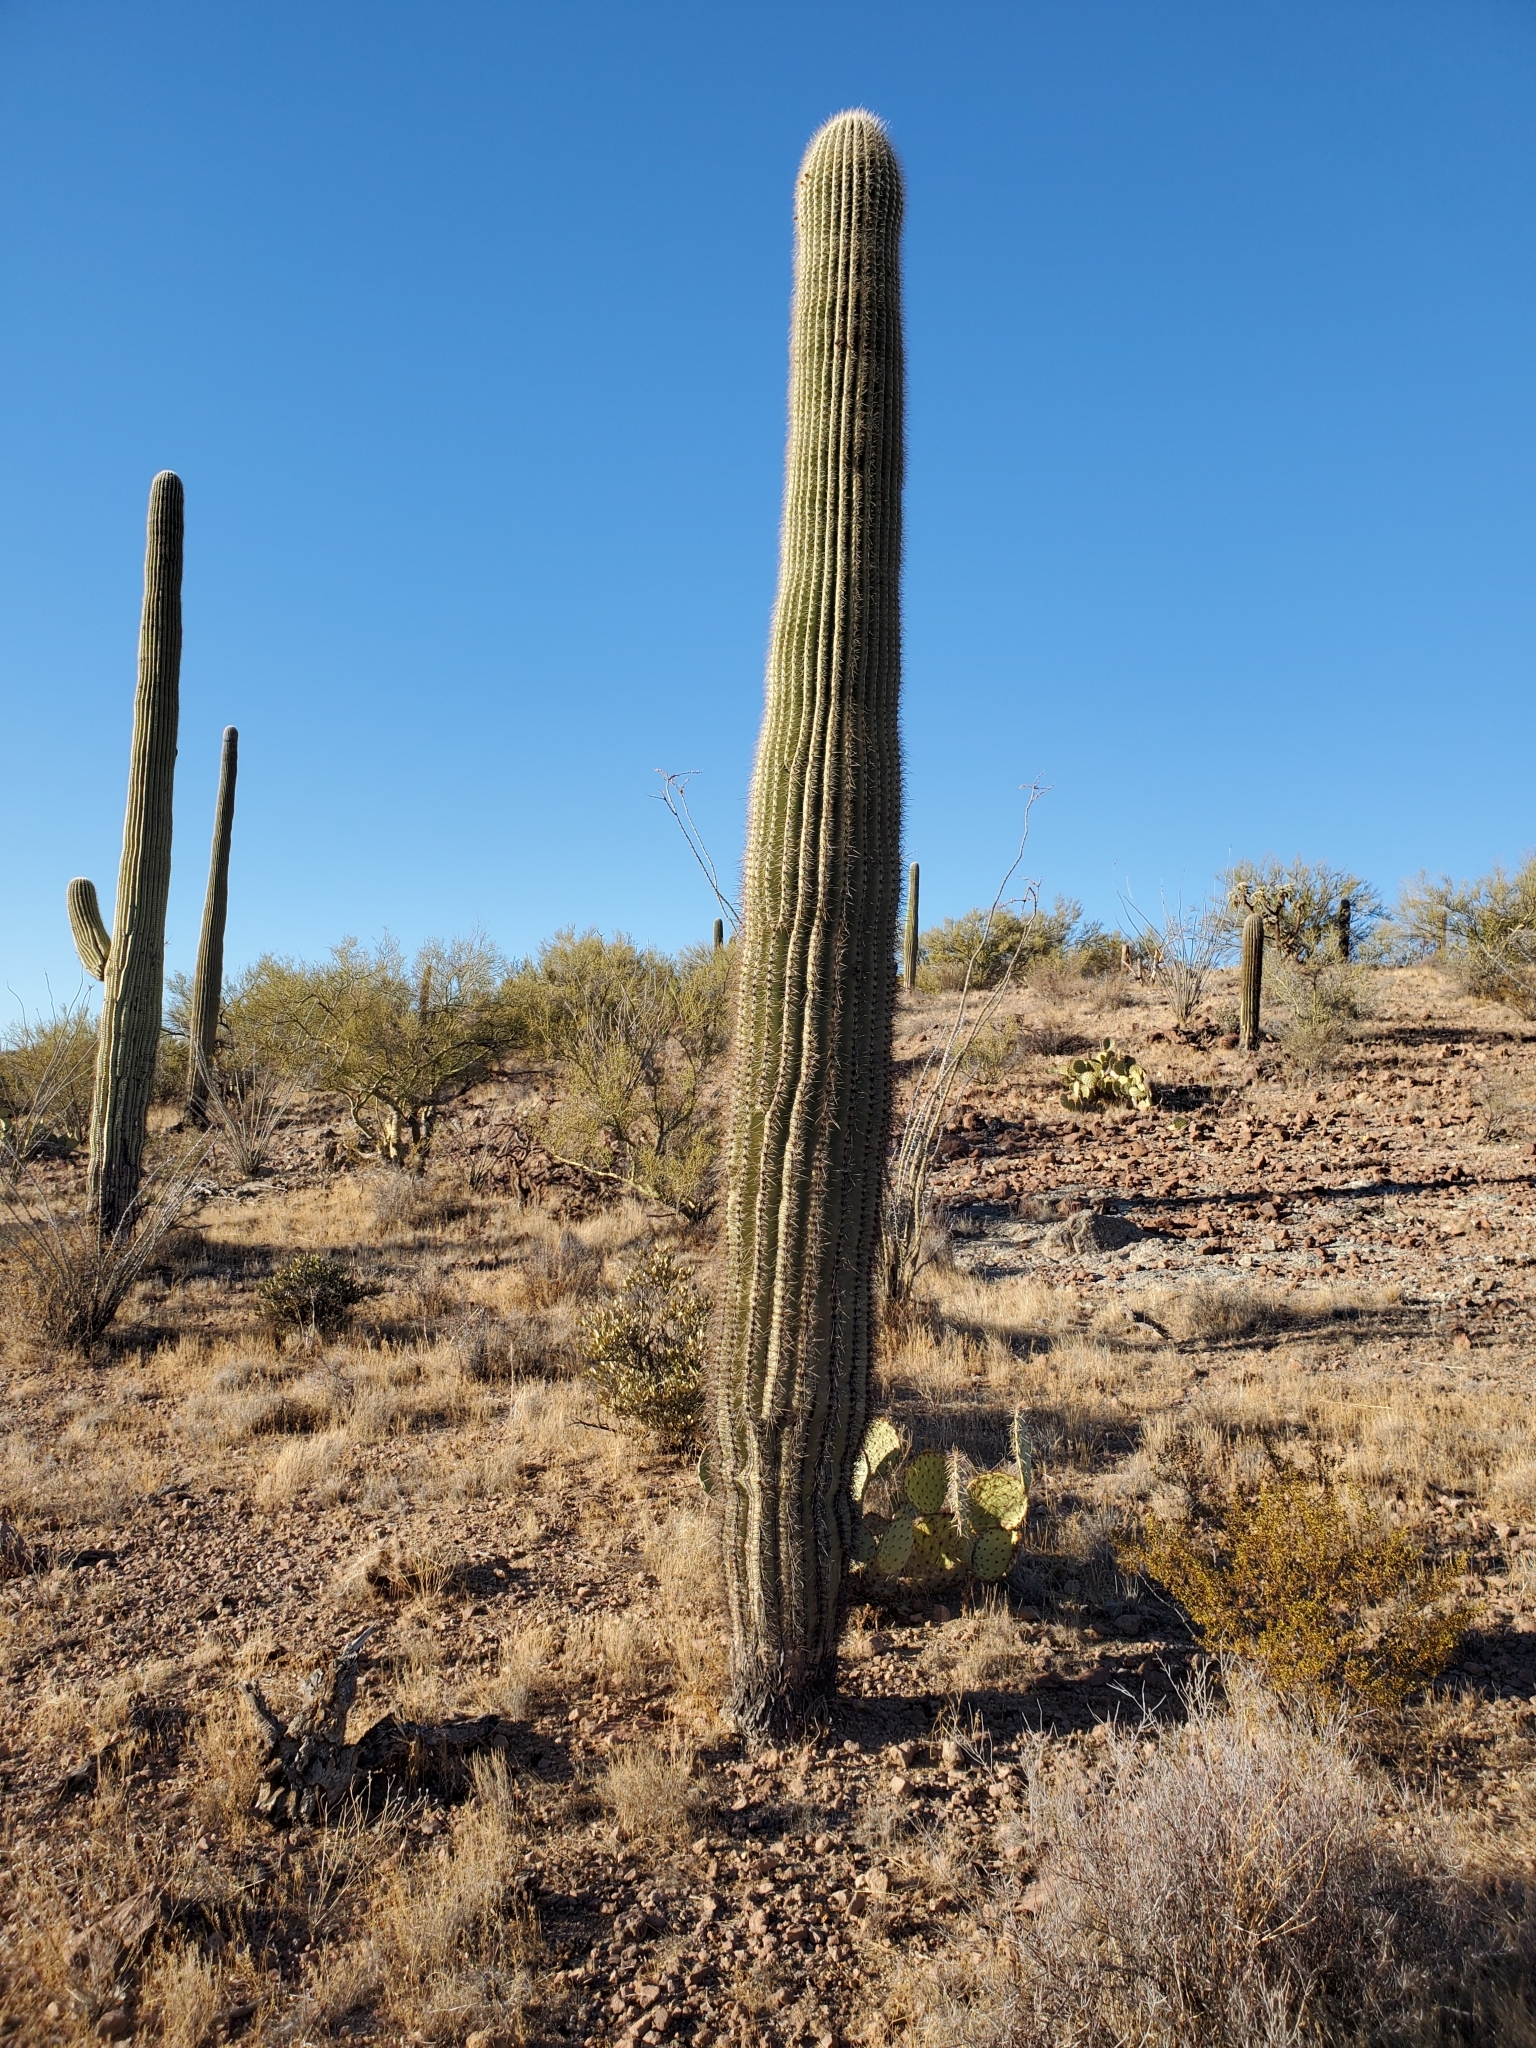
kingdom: Plantae
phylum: Tracheophyta
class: Magnoliopsida
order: Caryophyllales
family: Cactaceae
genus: Carnegiea
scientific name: Carnegiea gigantea
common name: Saguaro
